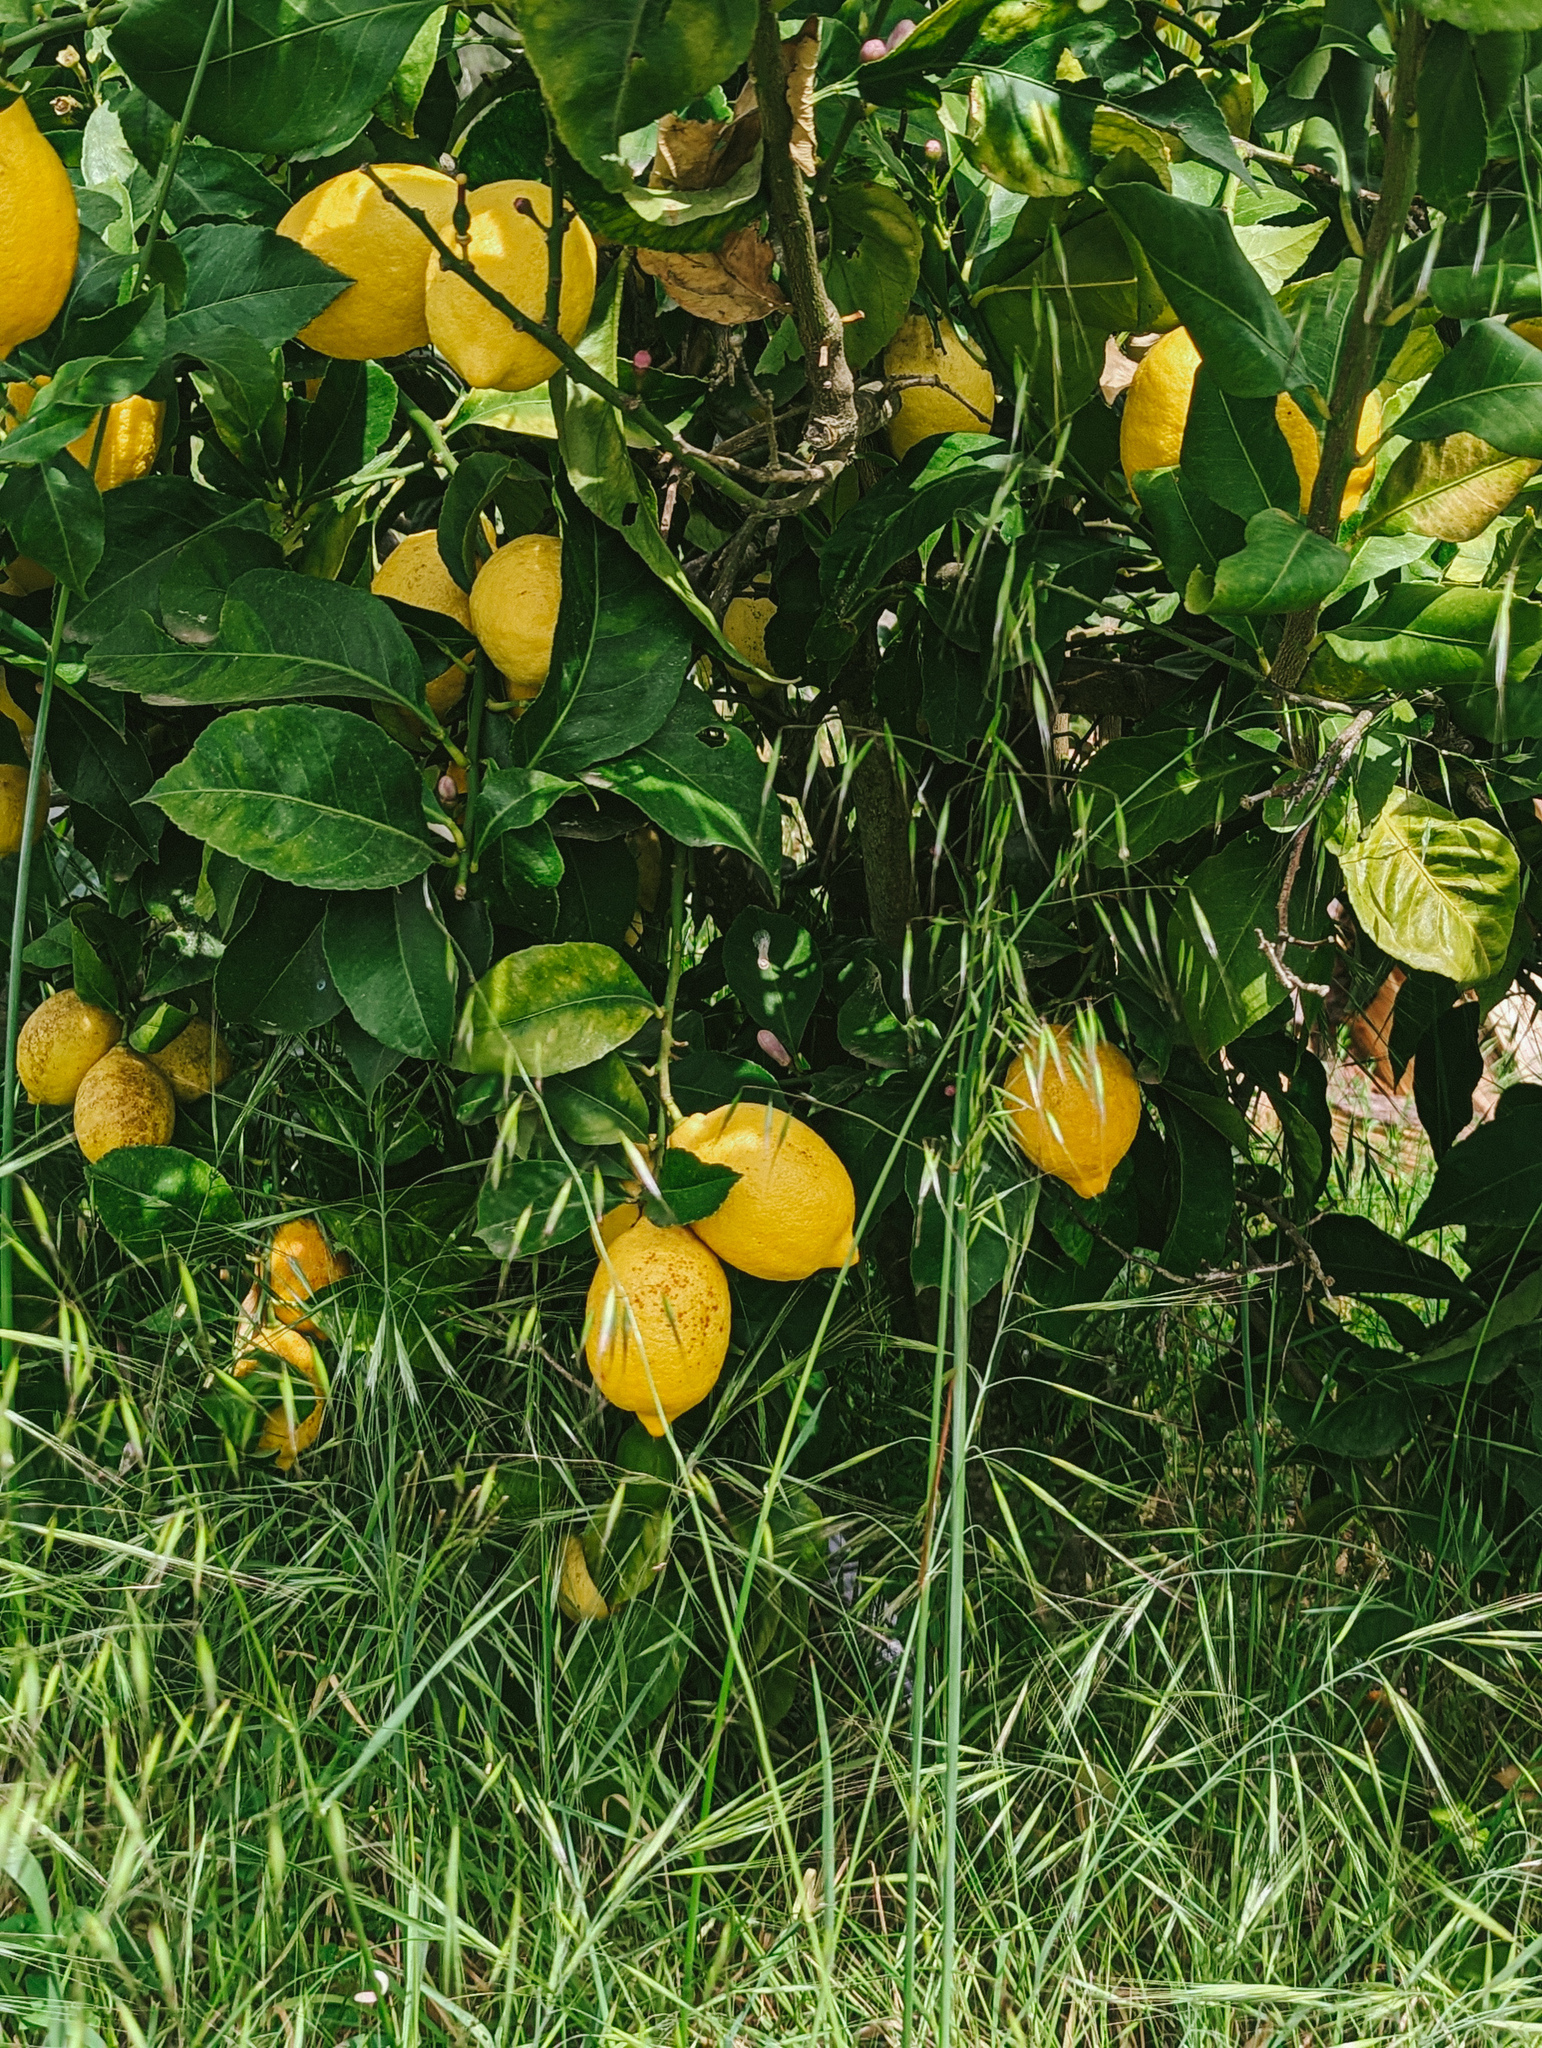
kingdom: Plantae
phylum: Tracheophyta
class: Magnoliopsida
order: Sapindales
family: Rutaceae
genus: Citrus
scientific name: Citrus limon
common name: Lemon
